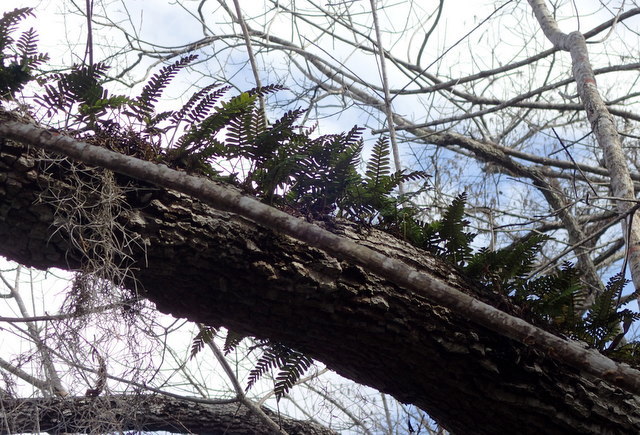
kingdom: Plantae
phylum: Tracheophyta
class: Polypodiopsida
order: Polypodiales
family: Polypodiaceae
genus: Pleopeltis
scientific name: Pleopeltis michauxiana
